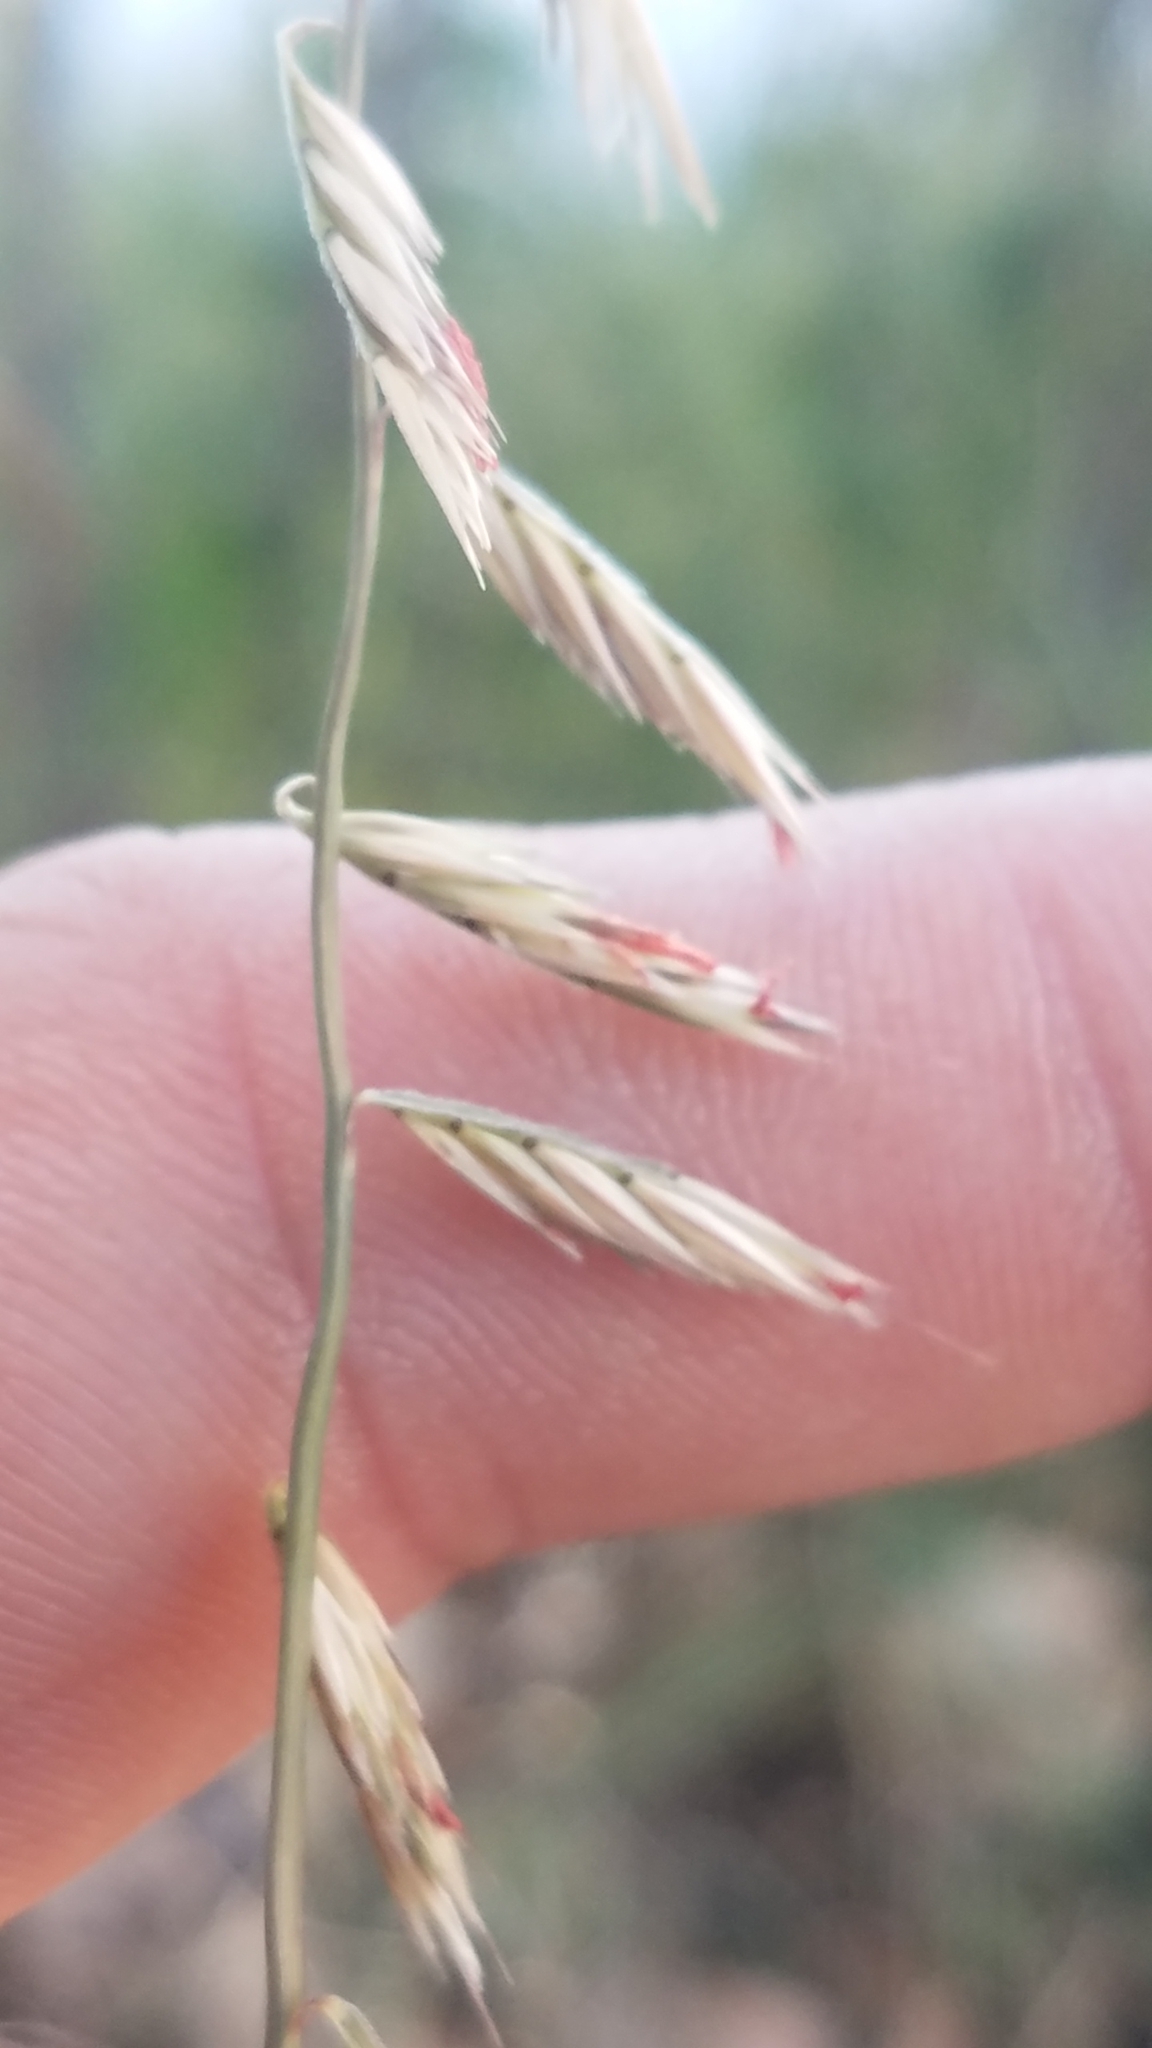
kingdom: Plantae
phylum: Tracheophyta
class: Liliopsida
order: Poales
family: Poaceae
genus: Bouteloua
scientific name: Bouteloua curtipendula
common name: Side-oats grama
